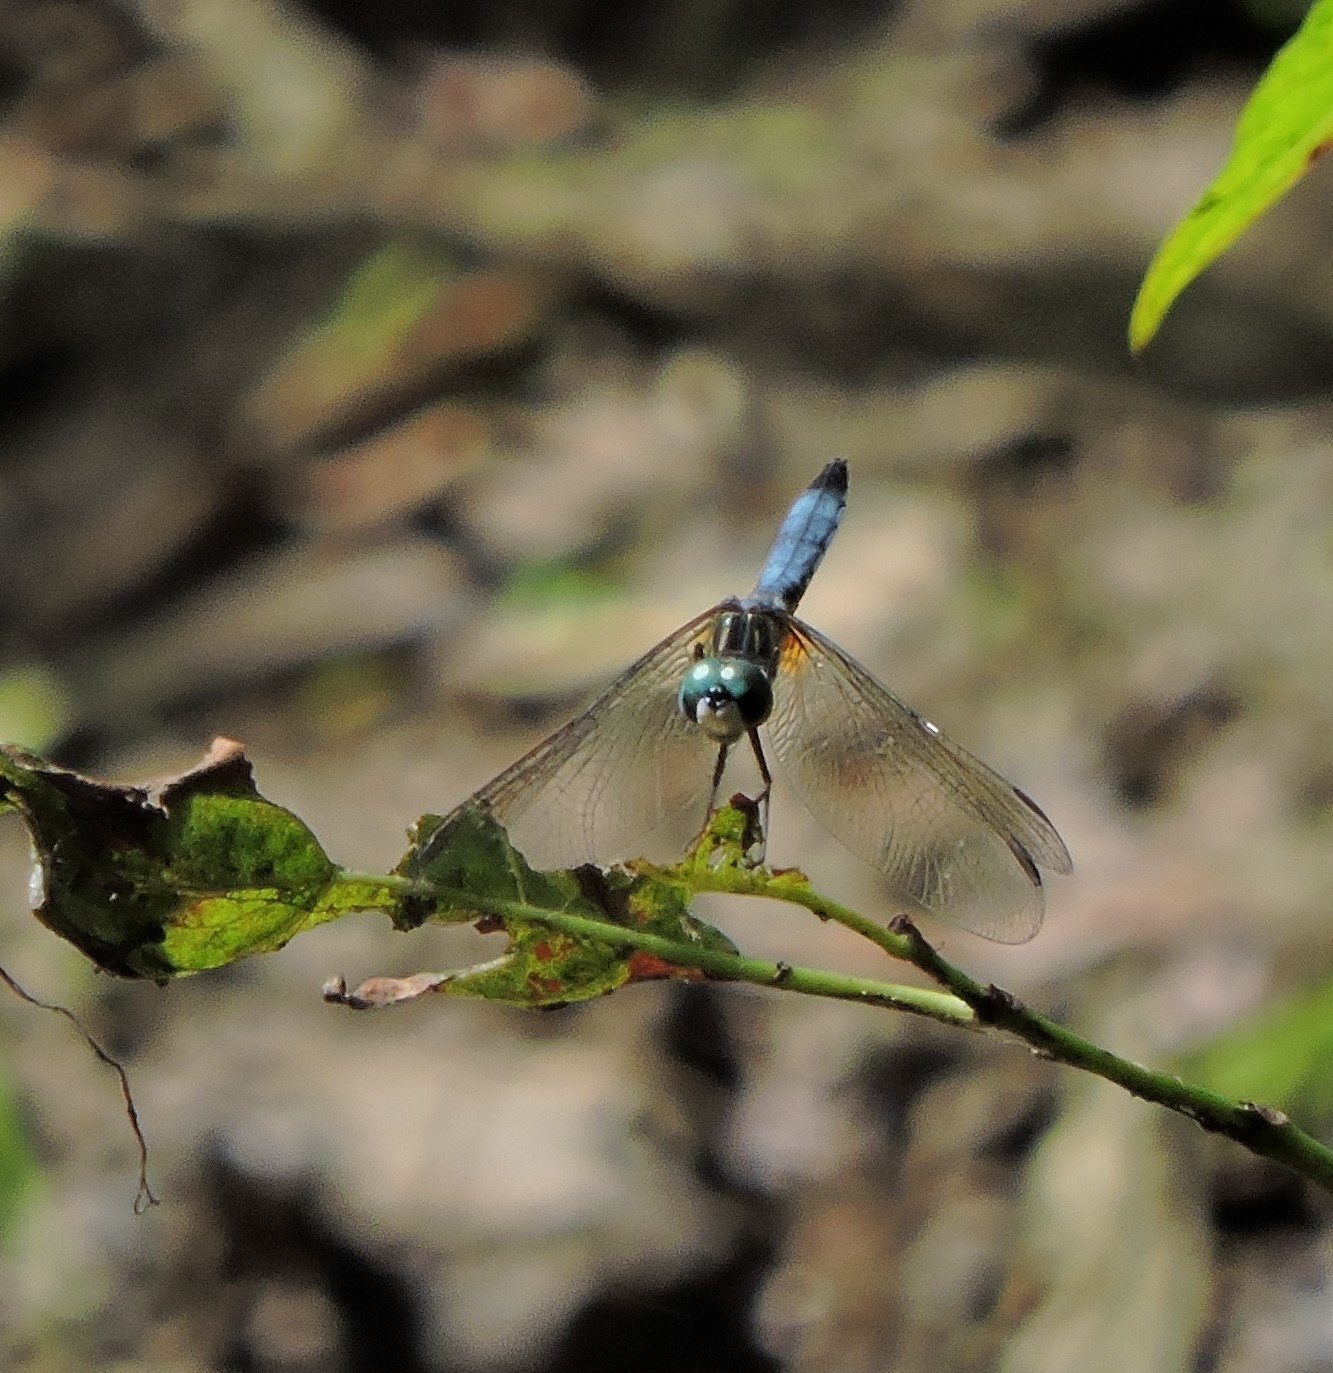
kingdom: Animalia
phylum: Arthropoda
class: Insecta
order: Odonata
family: Libellulidae
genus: Pachydiplax
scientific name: Pachydiplax longipennis
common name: Blue dasher
